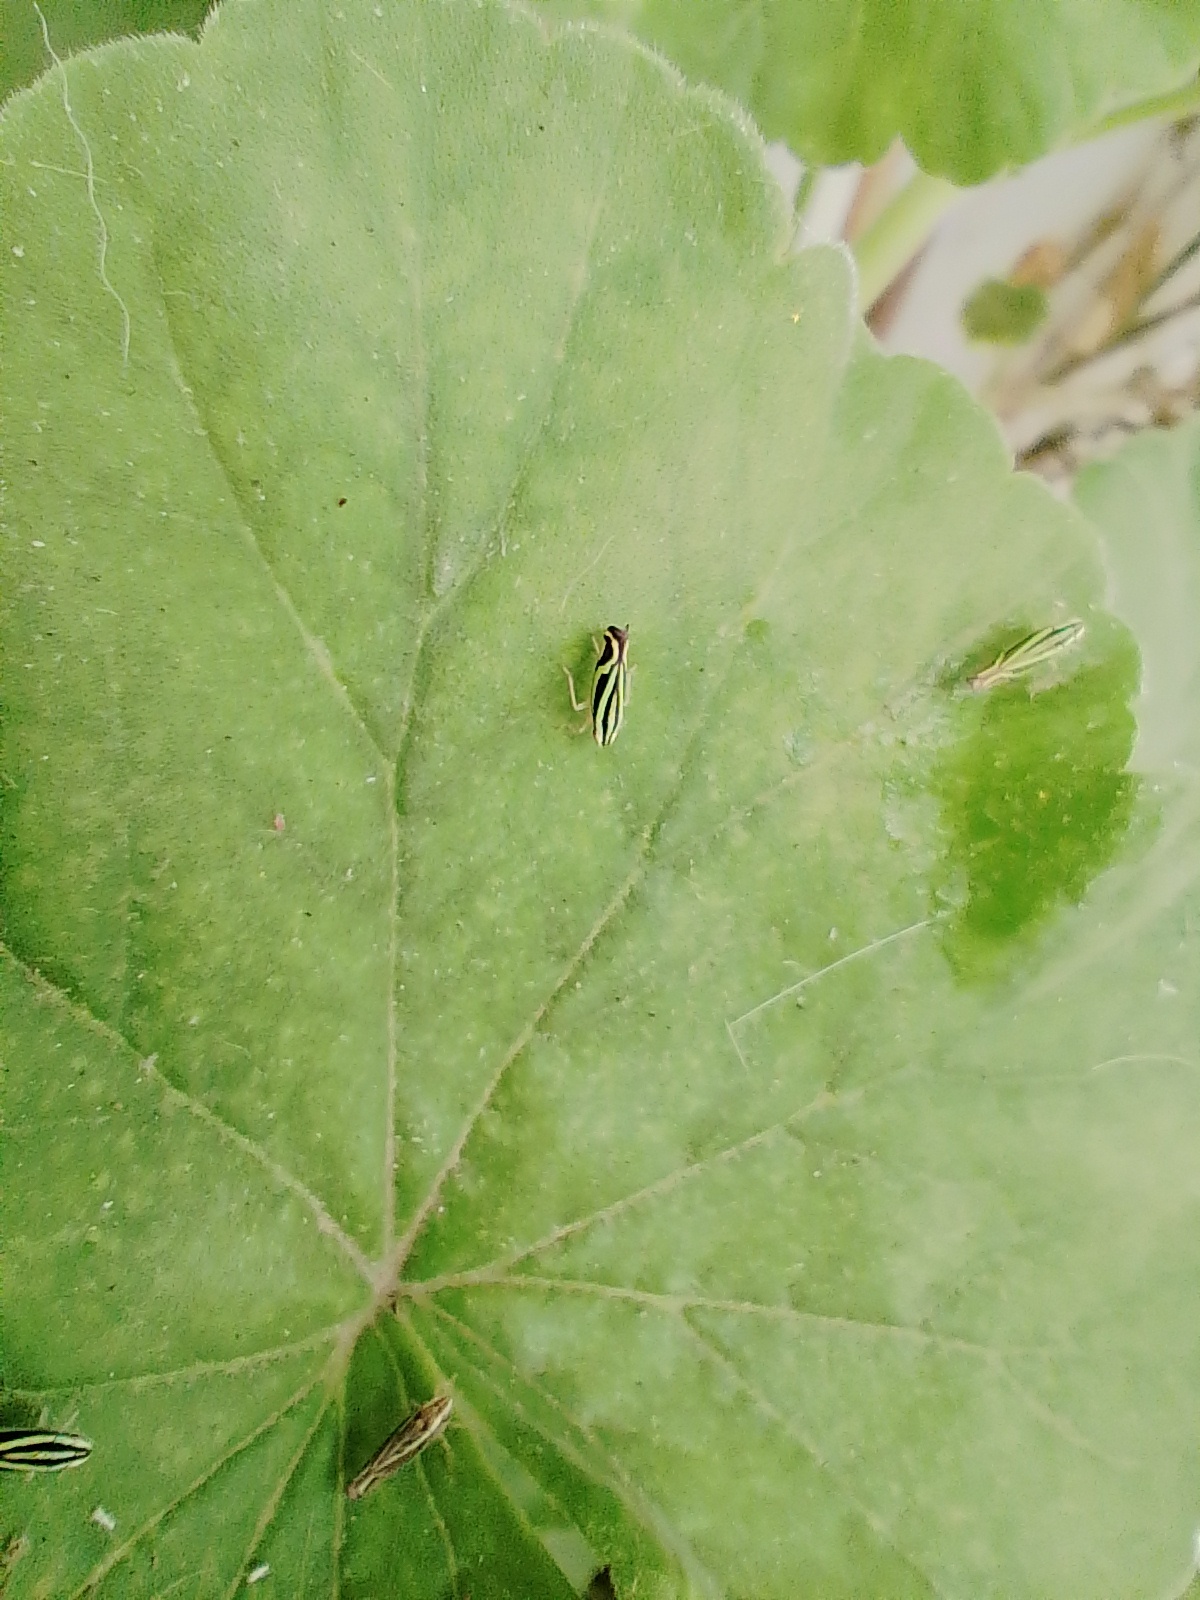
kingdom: Animalia
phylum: Arthropoda
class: Insecta
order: Hemiptera
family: Cicadellidae
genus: Sibovia
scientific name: Sibovia sagata
